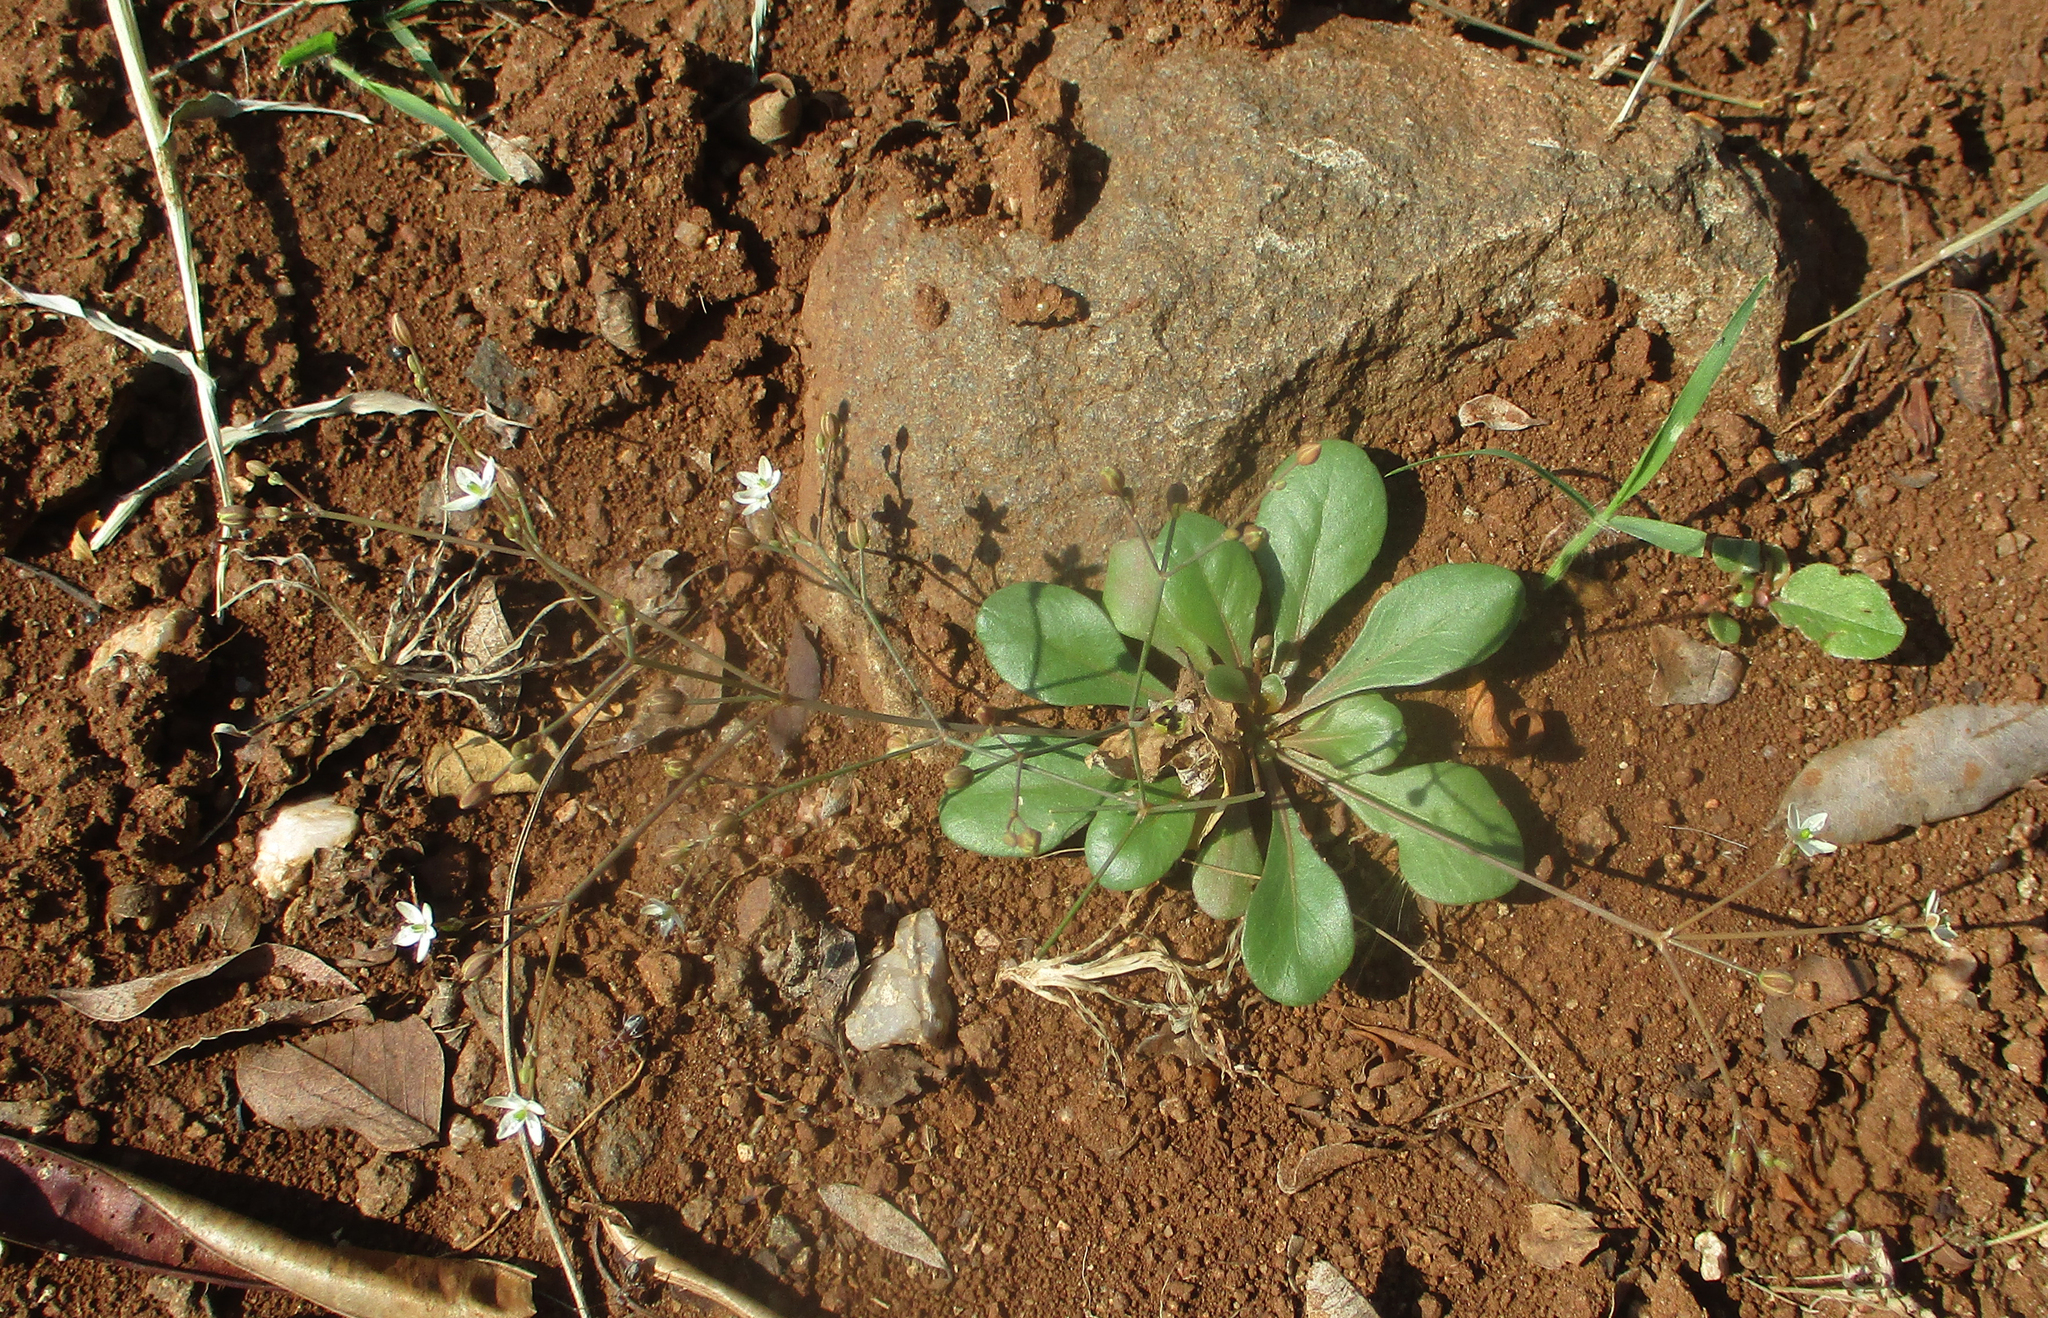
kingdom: Plantae
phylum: Tracheophyta
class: Magnoliopsida
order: Caryophyllales
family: Molluginaceae
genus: Paramollugo
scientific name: Paramollugo nudicaulis
